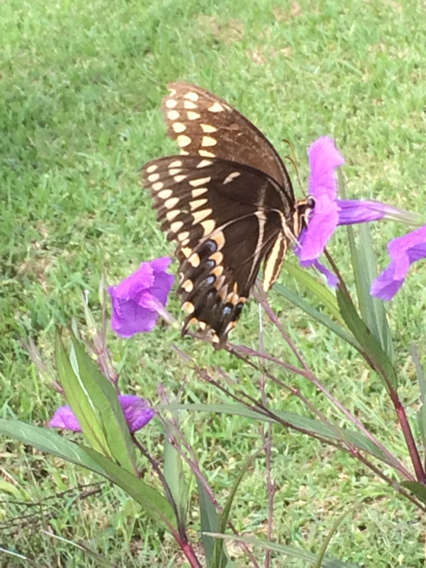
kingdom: Animalia
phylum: Arthropoda
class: Insecta
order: Lepidoptera
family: Papilionidae
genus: Papilio
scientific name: Papilio palamedes
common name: Palamedes swallowtail
